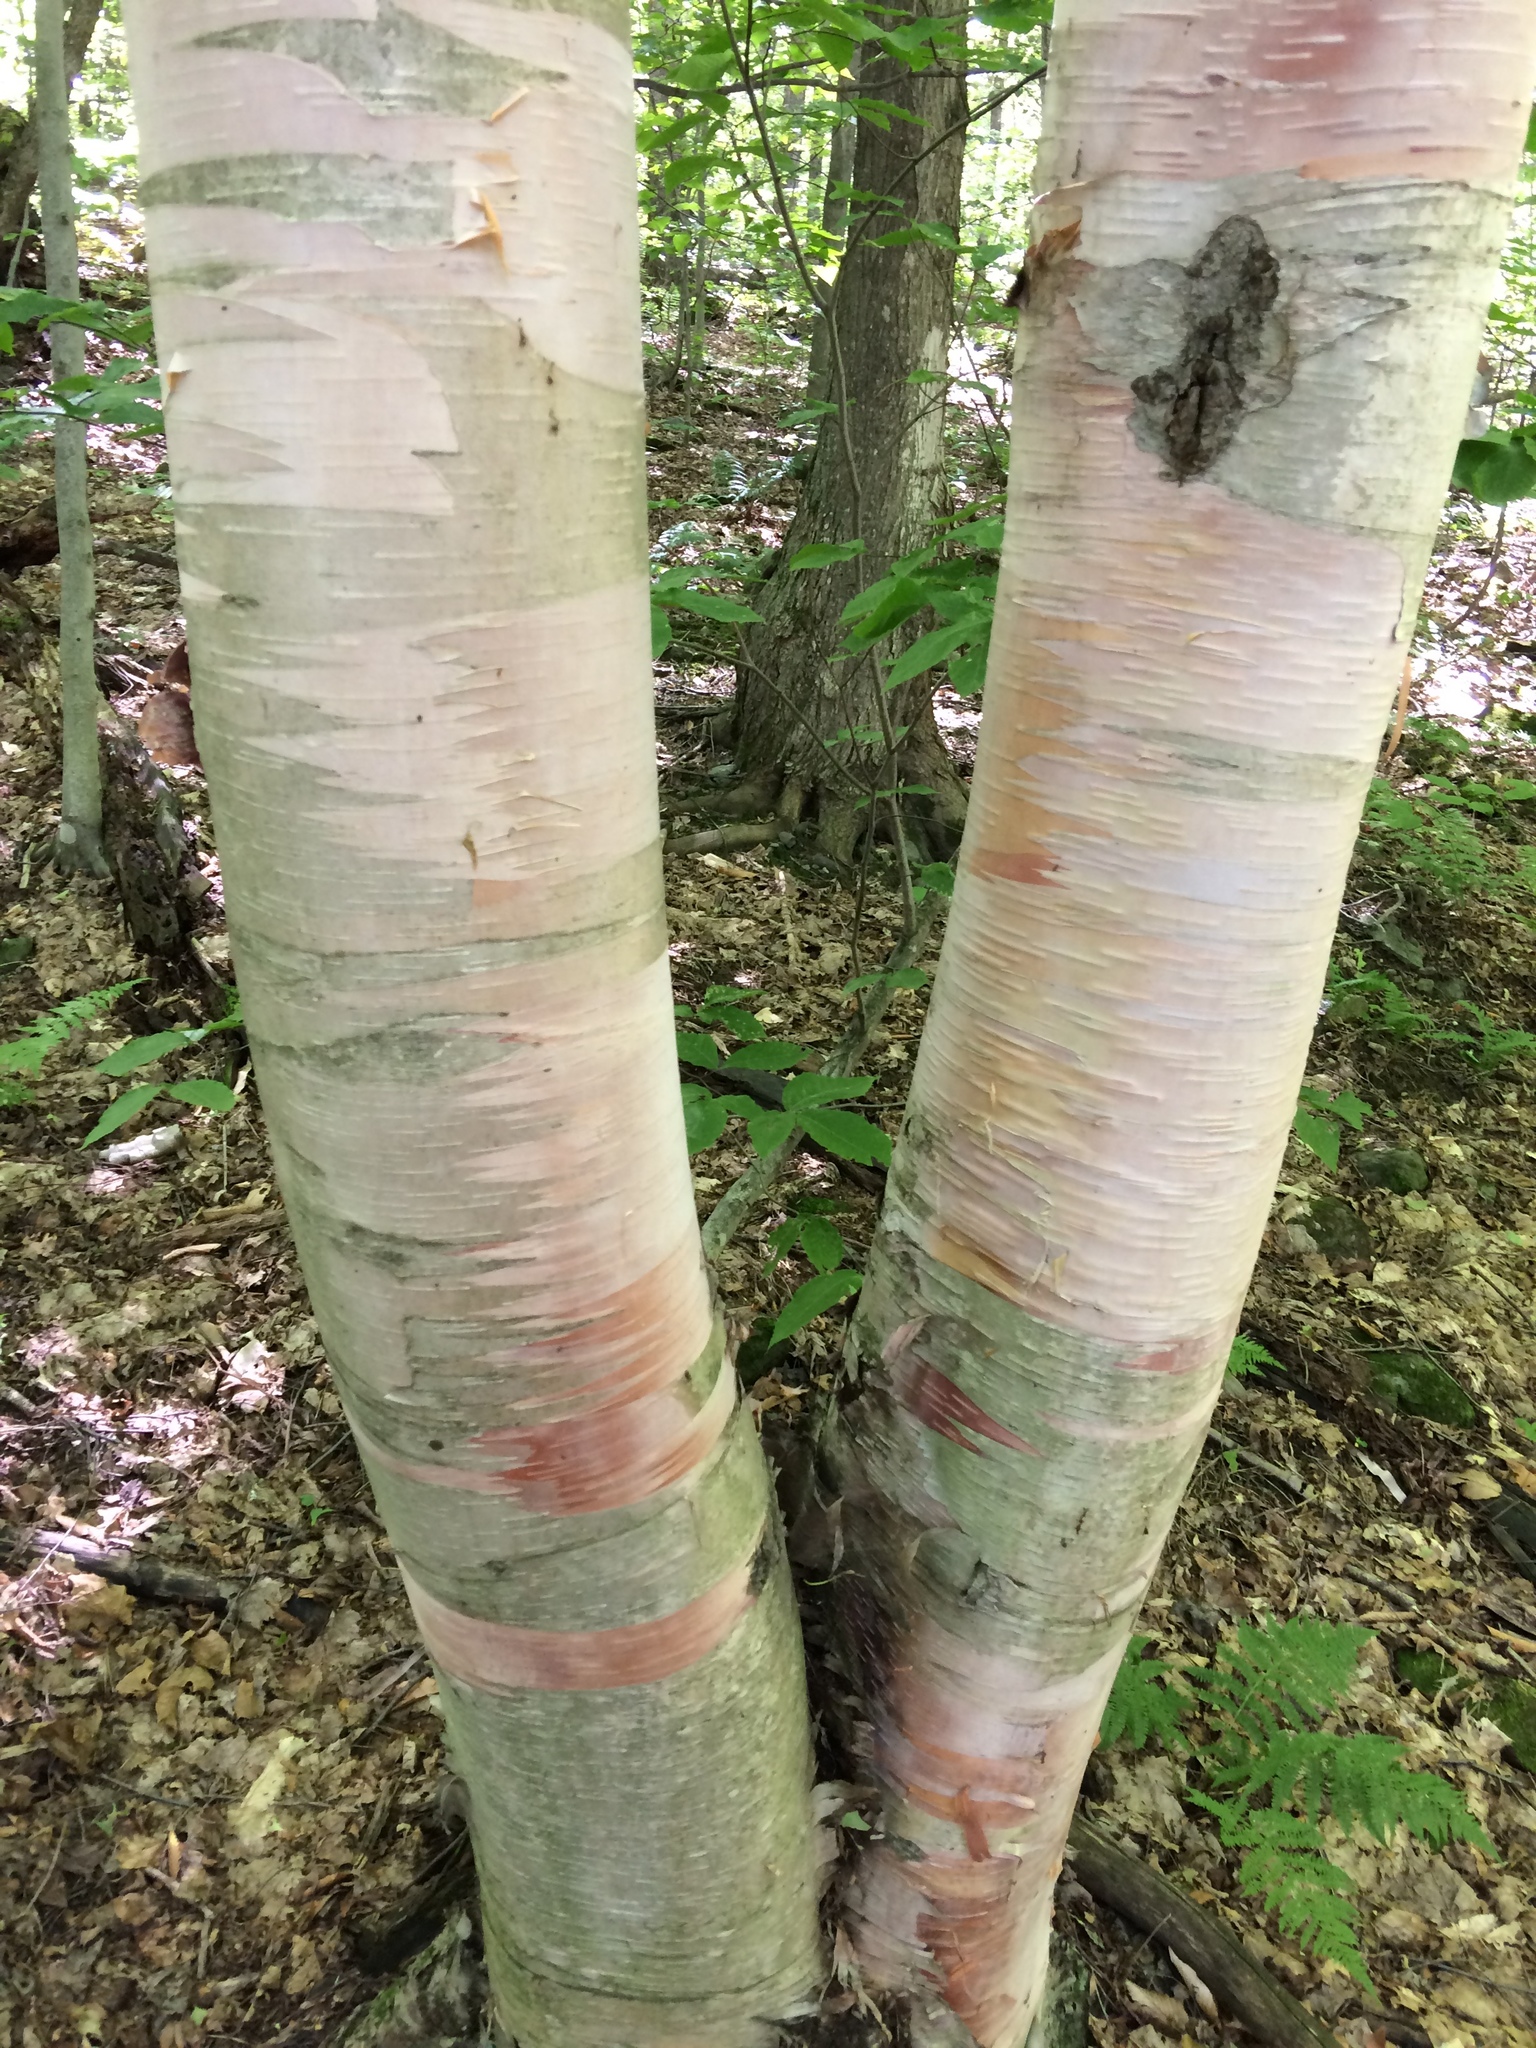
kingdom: Plantae
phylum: Tracheophyta
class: Magnoliopsida
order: Fagales
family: Betulaceae
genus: Betula
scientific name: Betula cordifolia
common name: Mountain white birch
